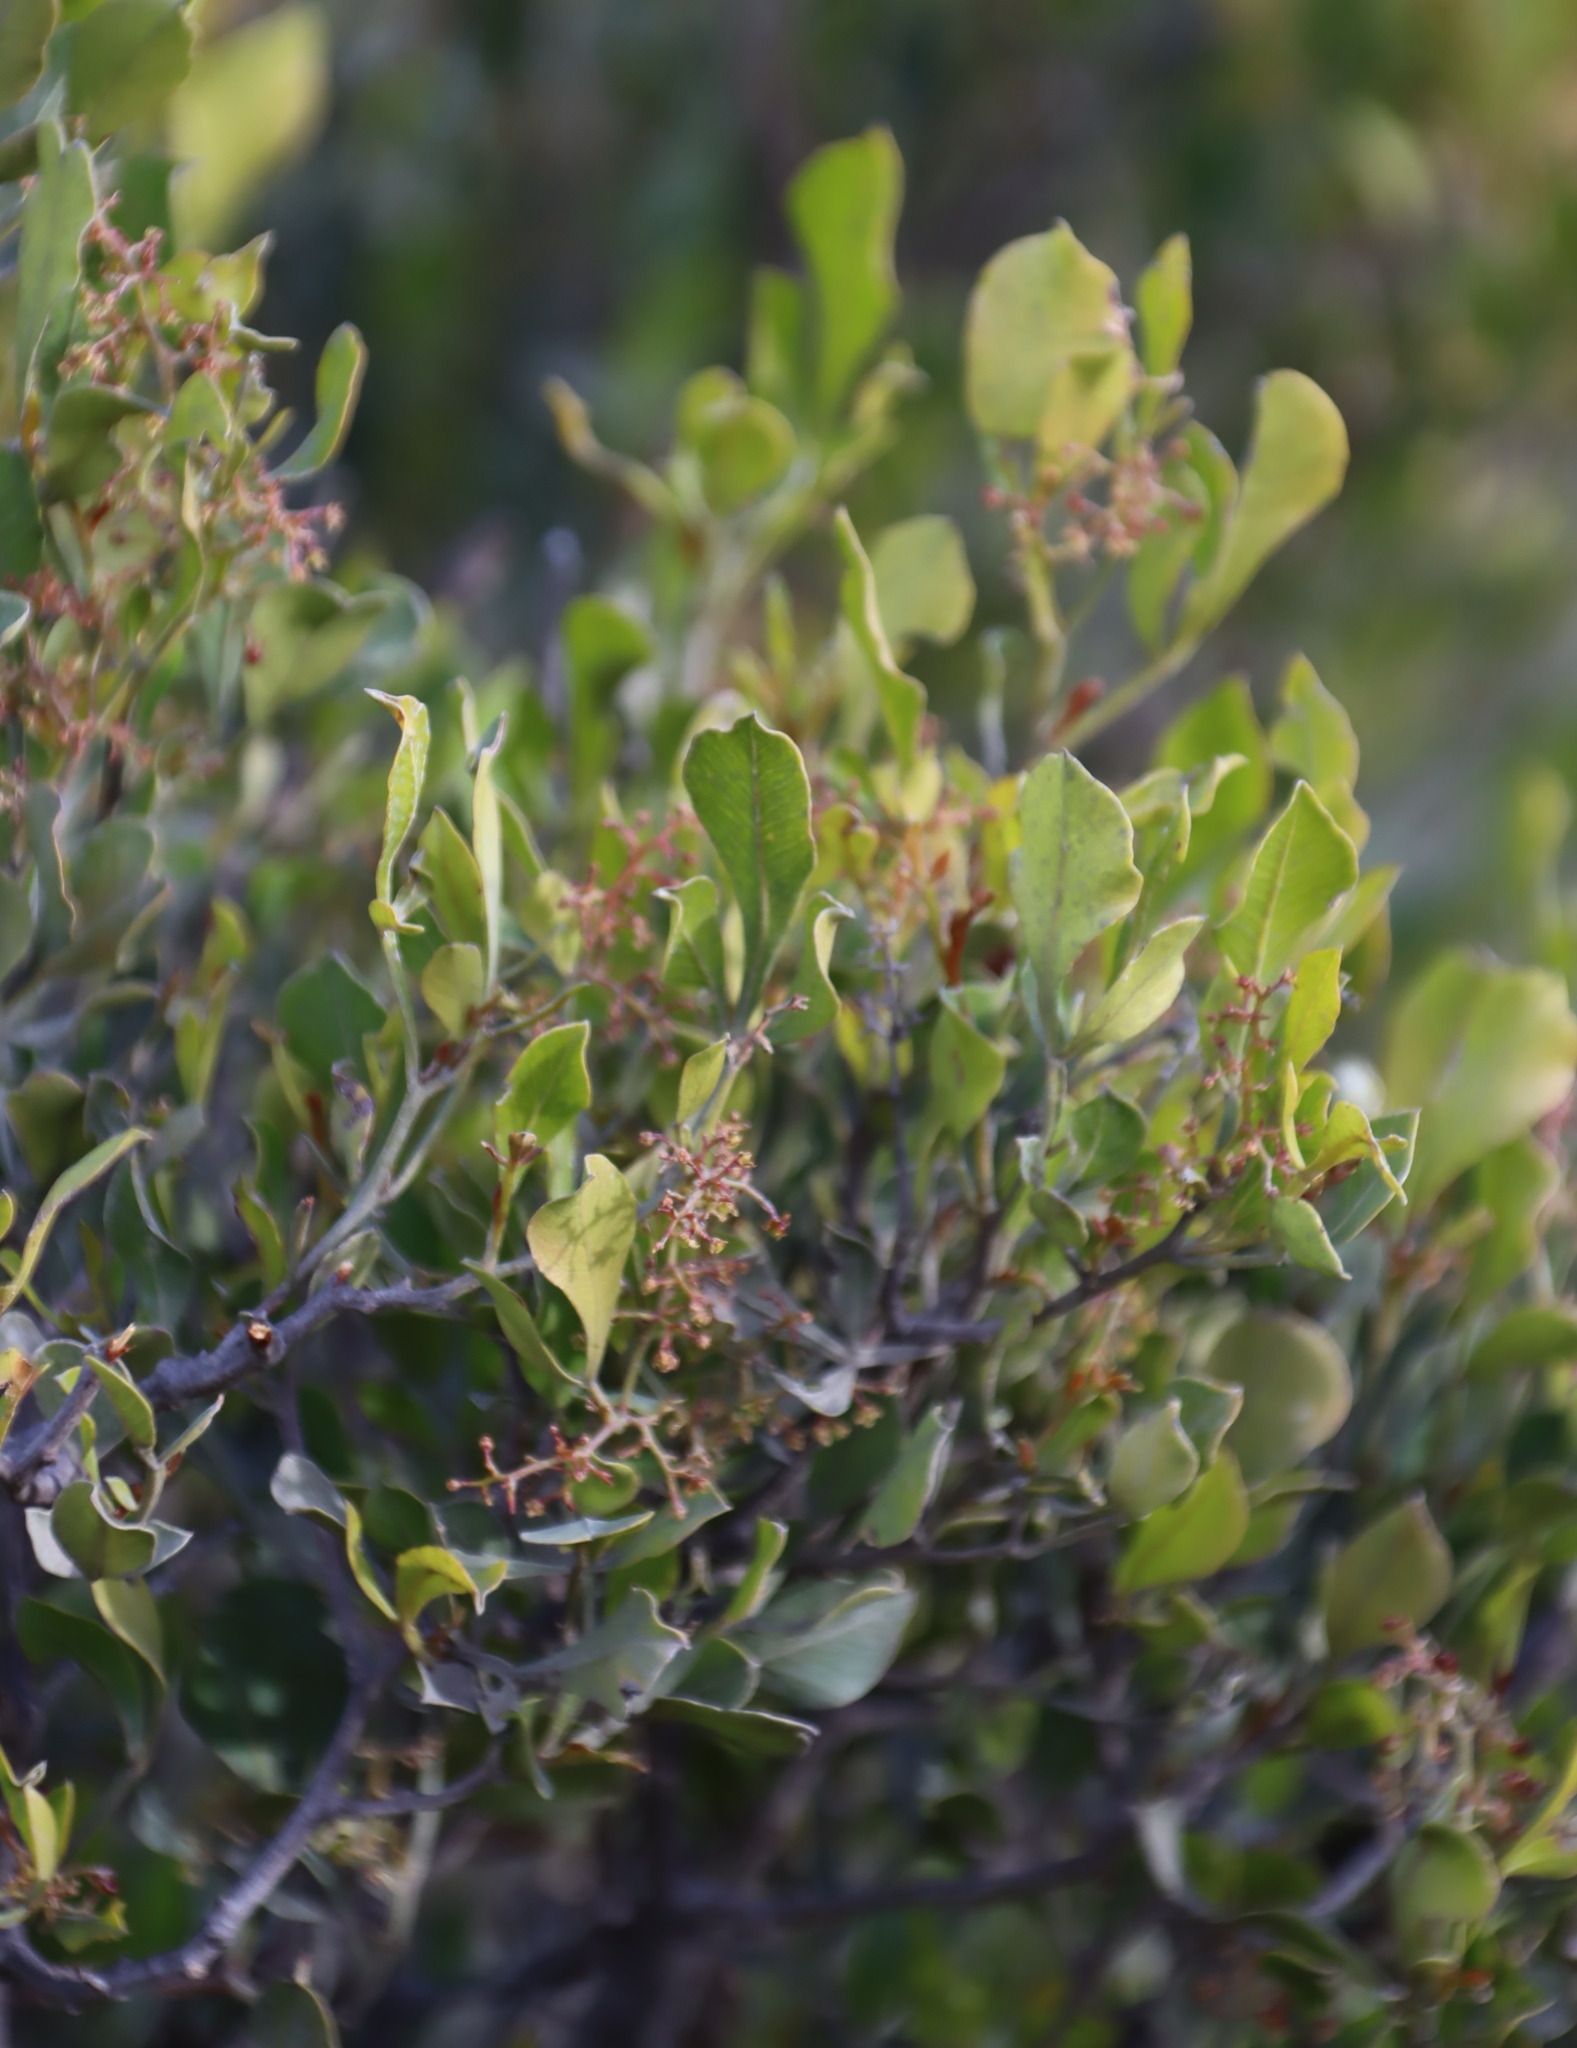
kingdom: Plantae
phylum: Tracheophyta
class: Magnoliopsida
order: Sapindales
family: Anacardiaceae
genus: Searsia
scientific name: Searsia pallens
